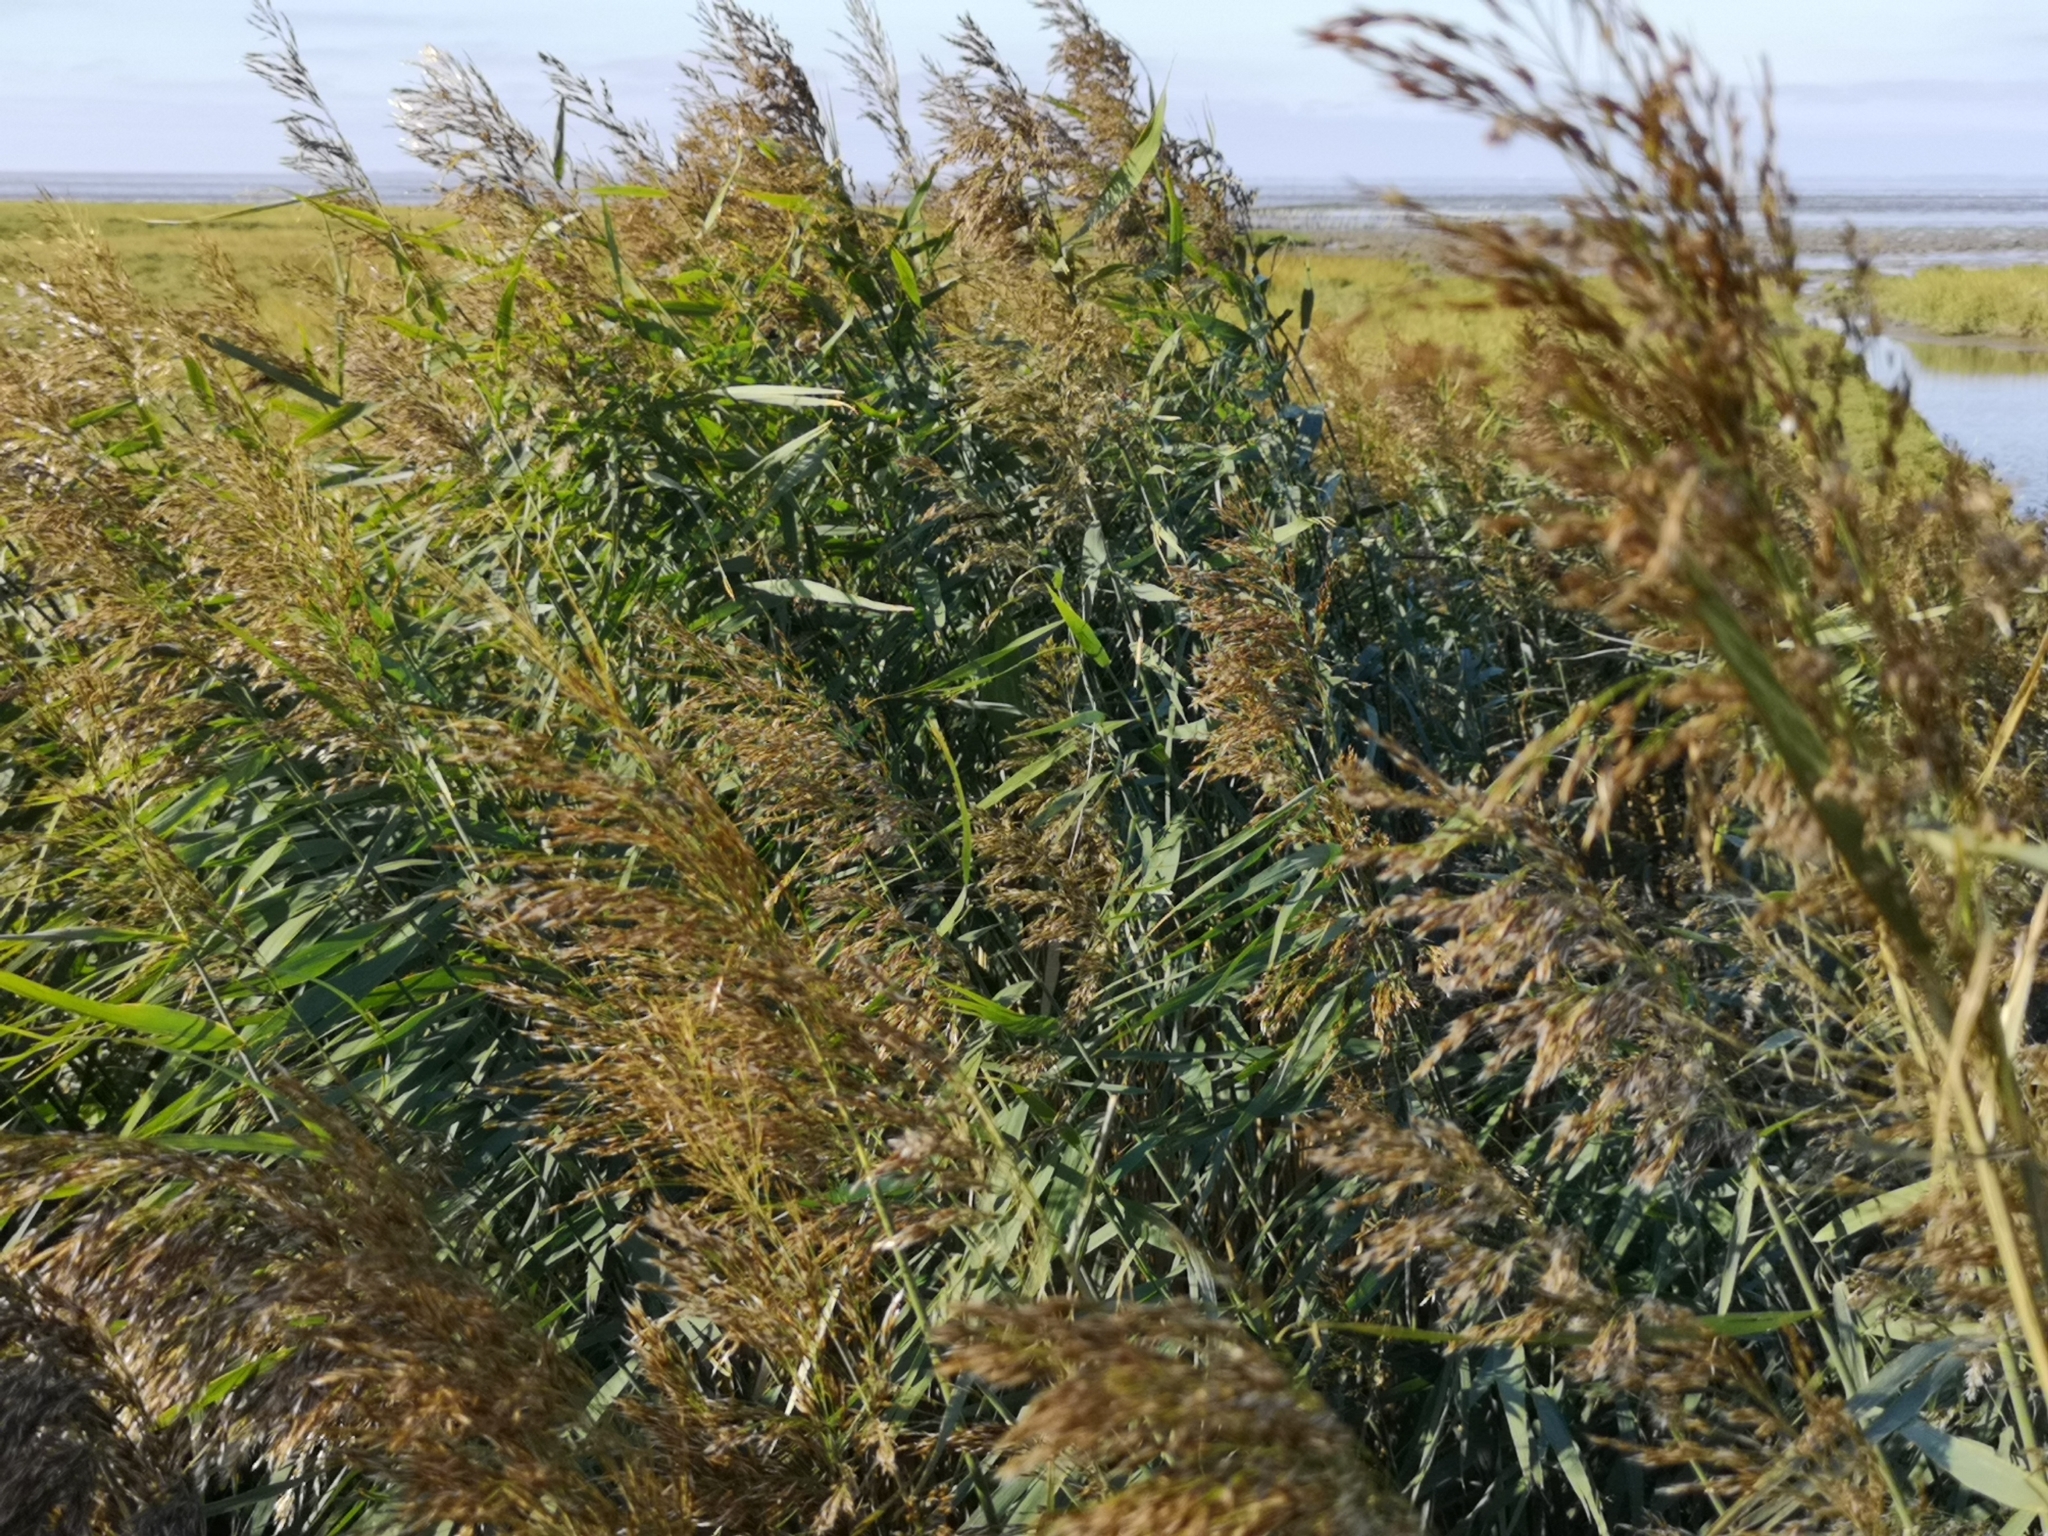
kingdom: Plantae
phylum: Tracheophyta
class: Liliopsida
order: Poales
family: Poaceae
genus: Phragmites
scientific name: Phragmites australis
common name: Common reed
